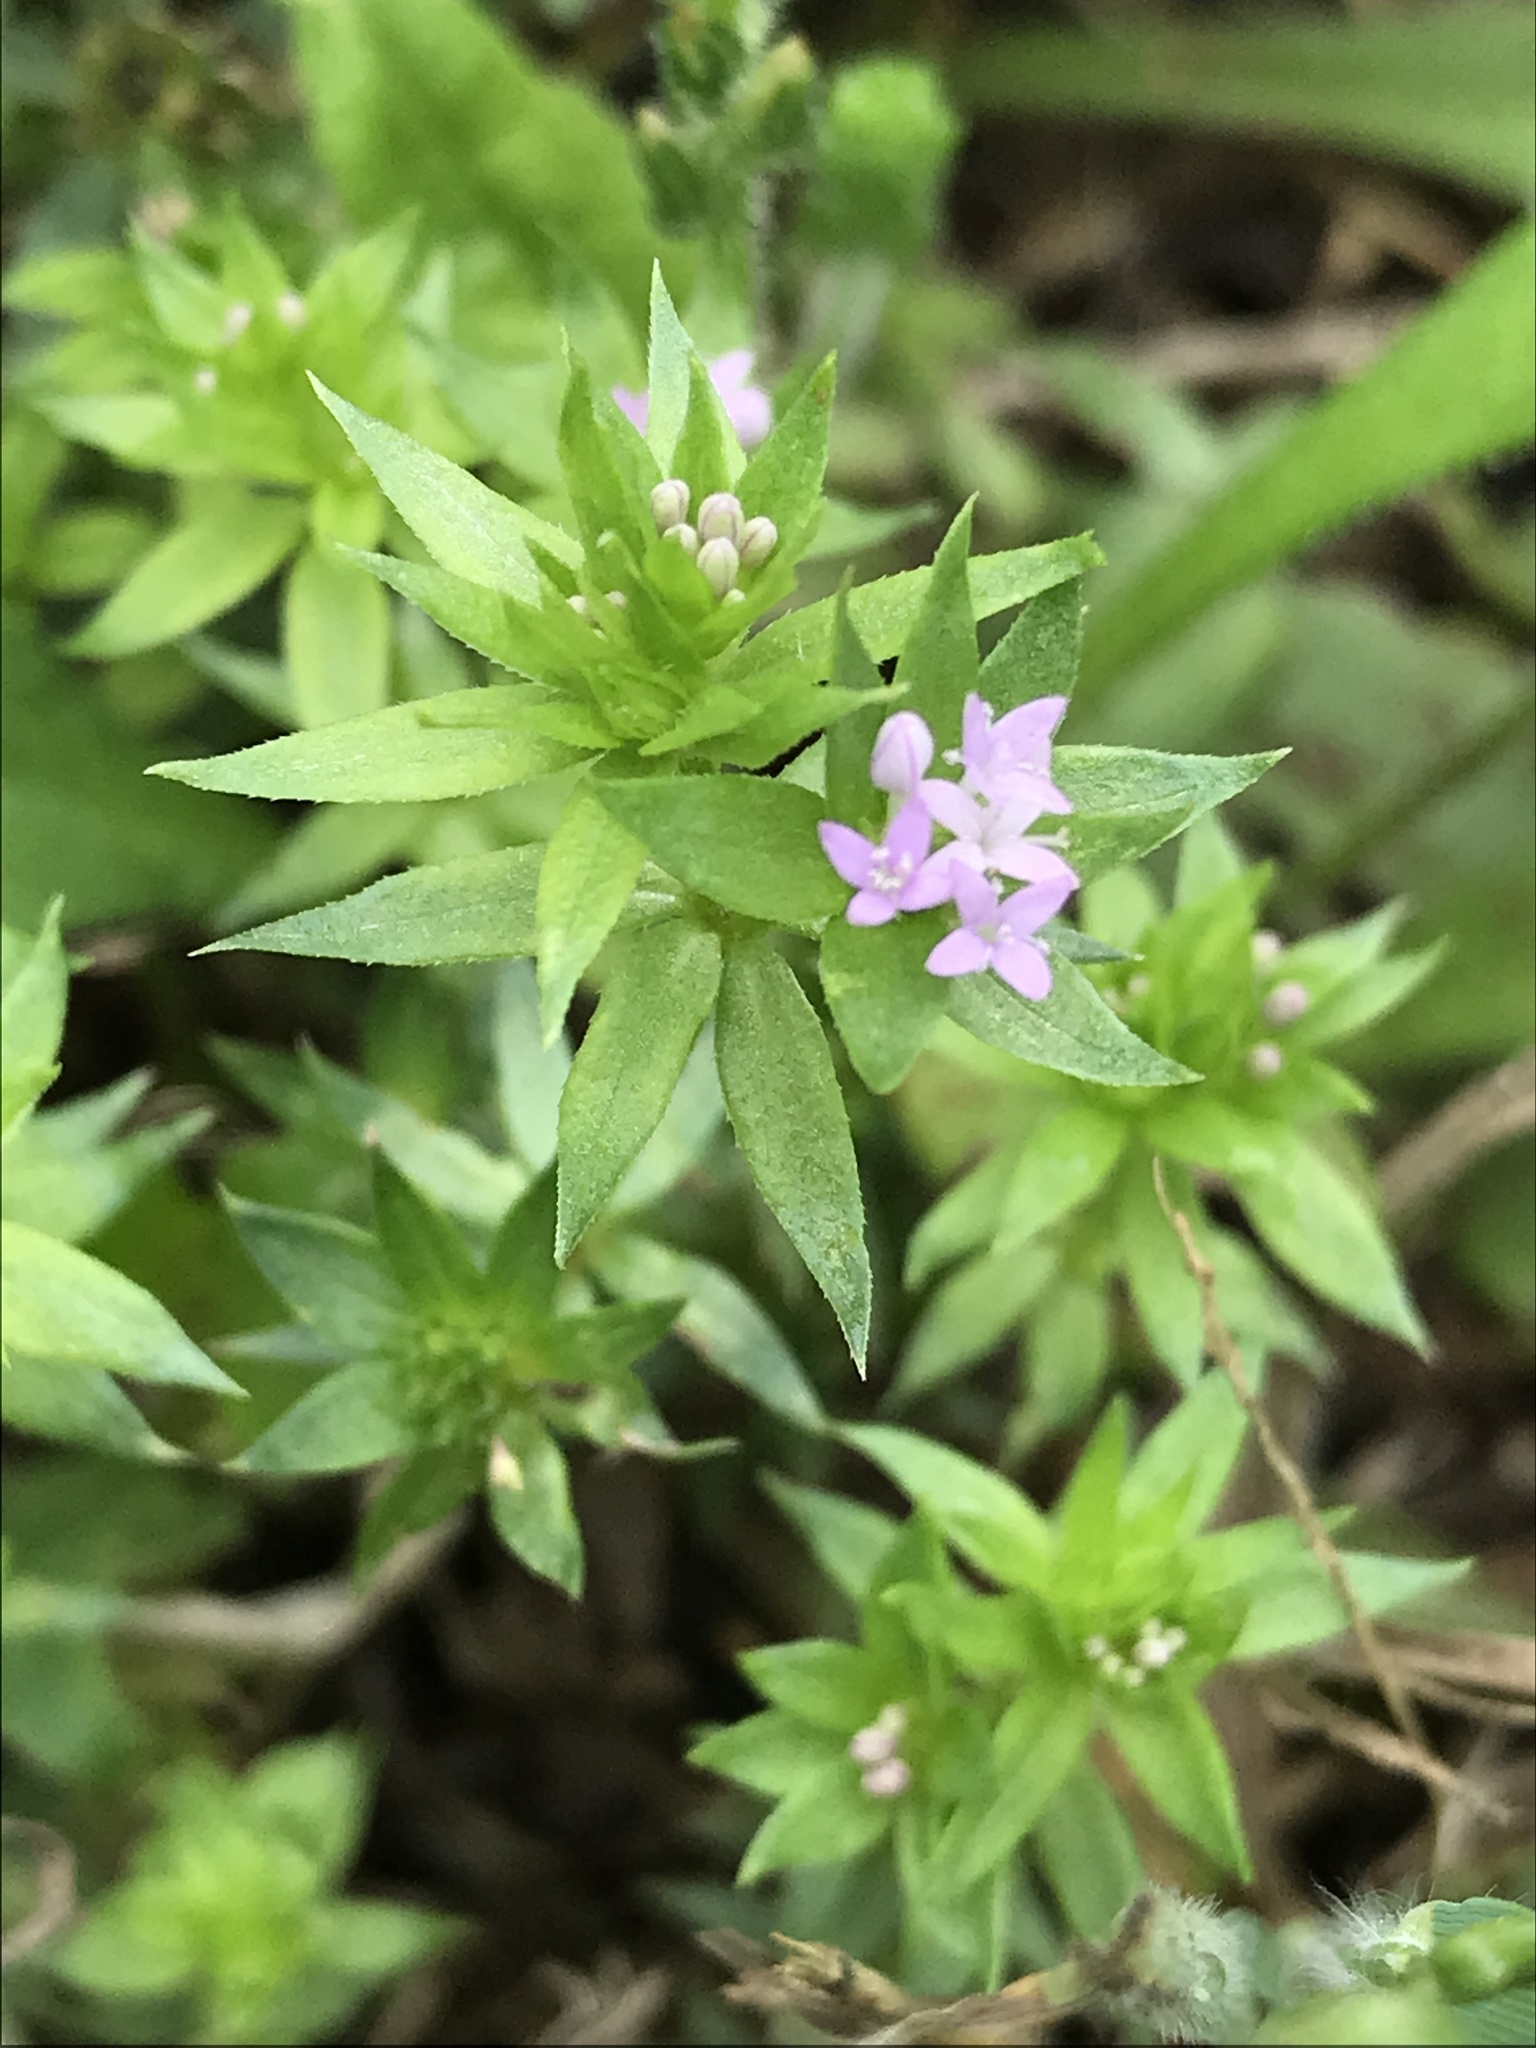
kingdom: Plantae
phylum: Tracheophyta
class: Magnoliopsida
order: Gentianales
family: Rubiaceae
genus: Sherardia
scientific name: Sherardia arvensis
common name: Field madder
